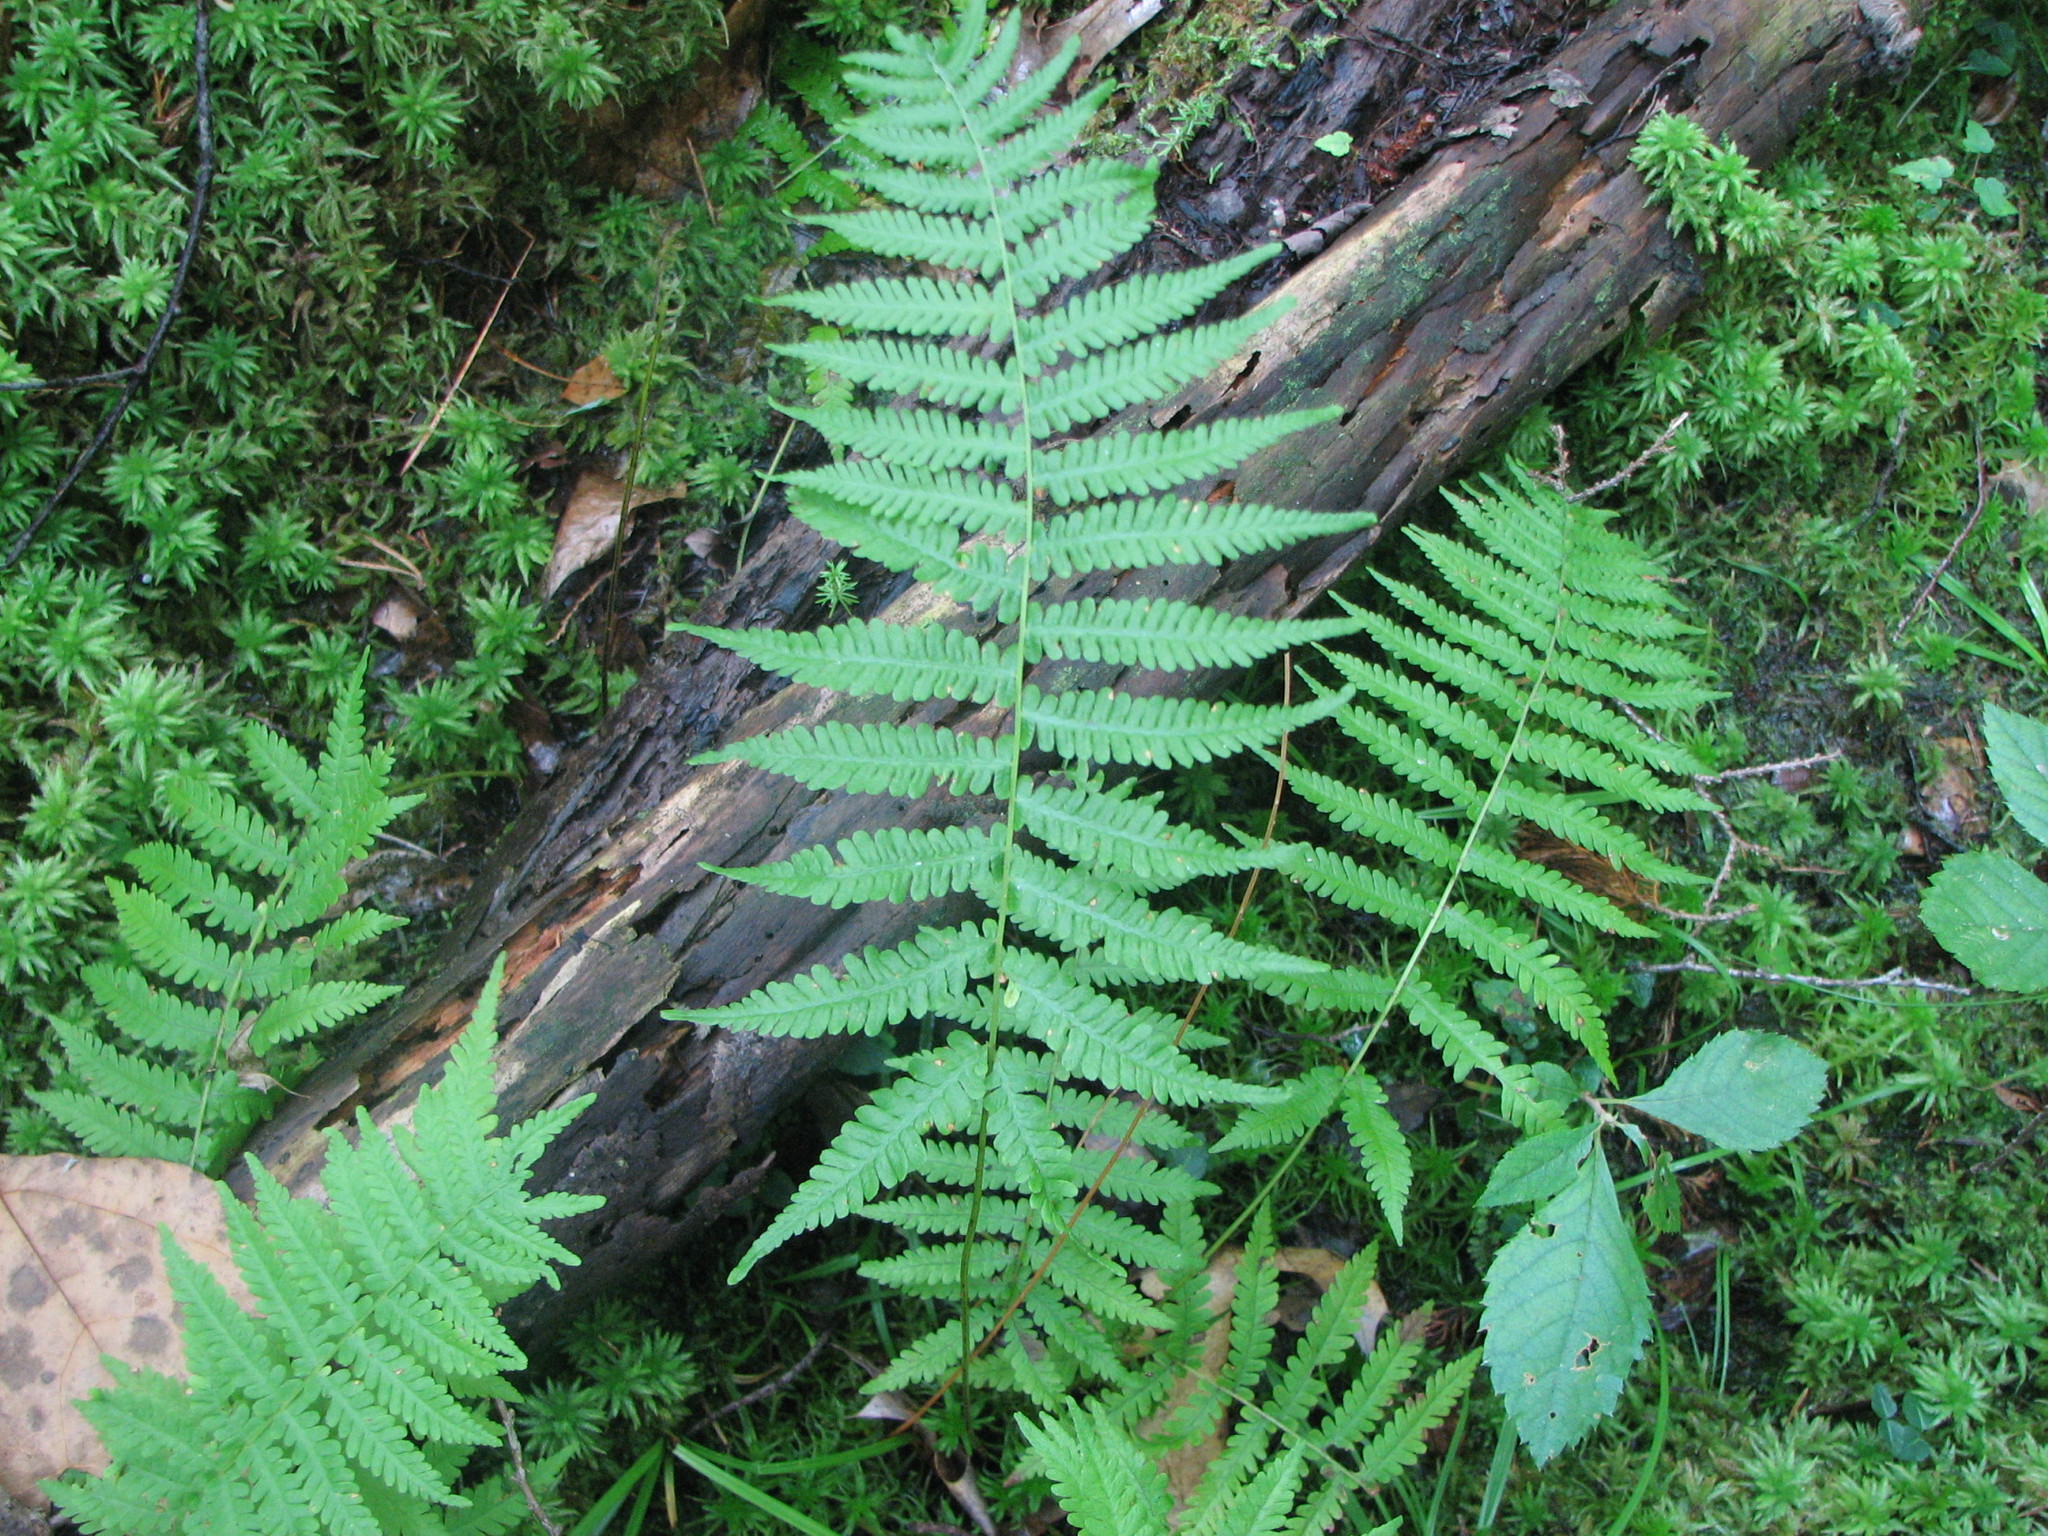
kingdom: Plantae
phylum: Tracheophyta
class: Polypodiopsida
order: Polypodiales
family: Thelypteridaceae
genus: Coryphopteris
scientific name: Coryphopteris simulata
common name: Bog fern
